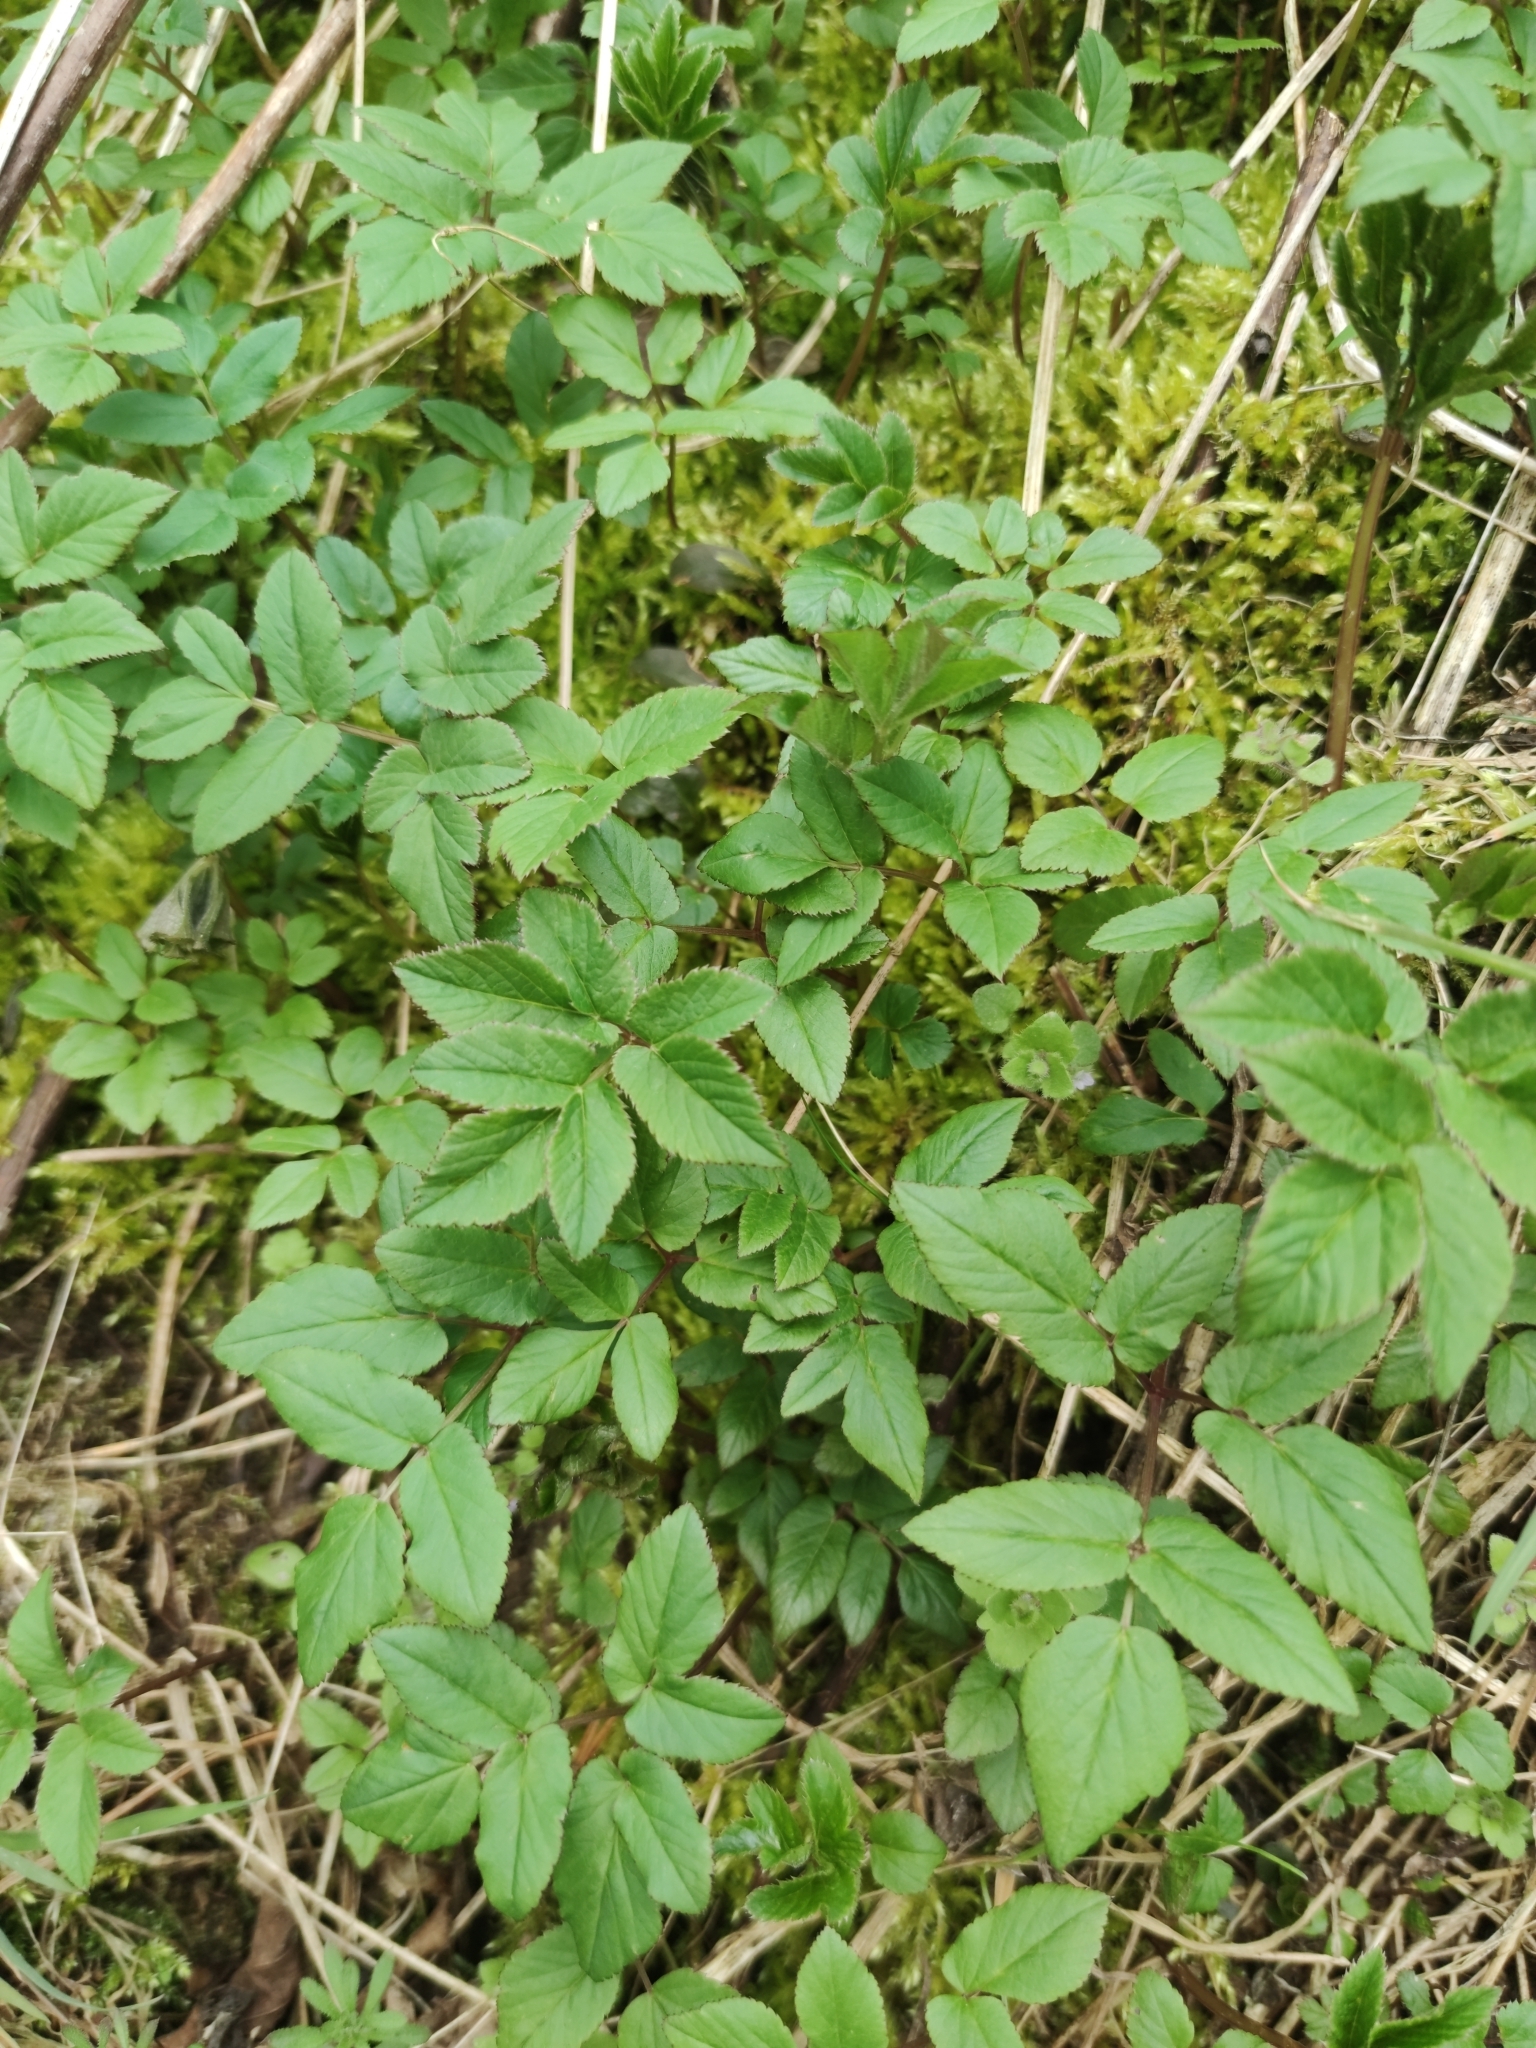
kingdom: Plantae
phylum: Tracheophyta
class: Magnoliopsida
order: Apiales
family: Apiaceae
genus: Aegopodium
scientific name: Aegopodium podagraria
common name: Ground-elder
